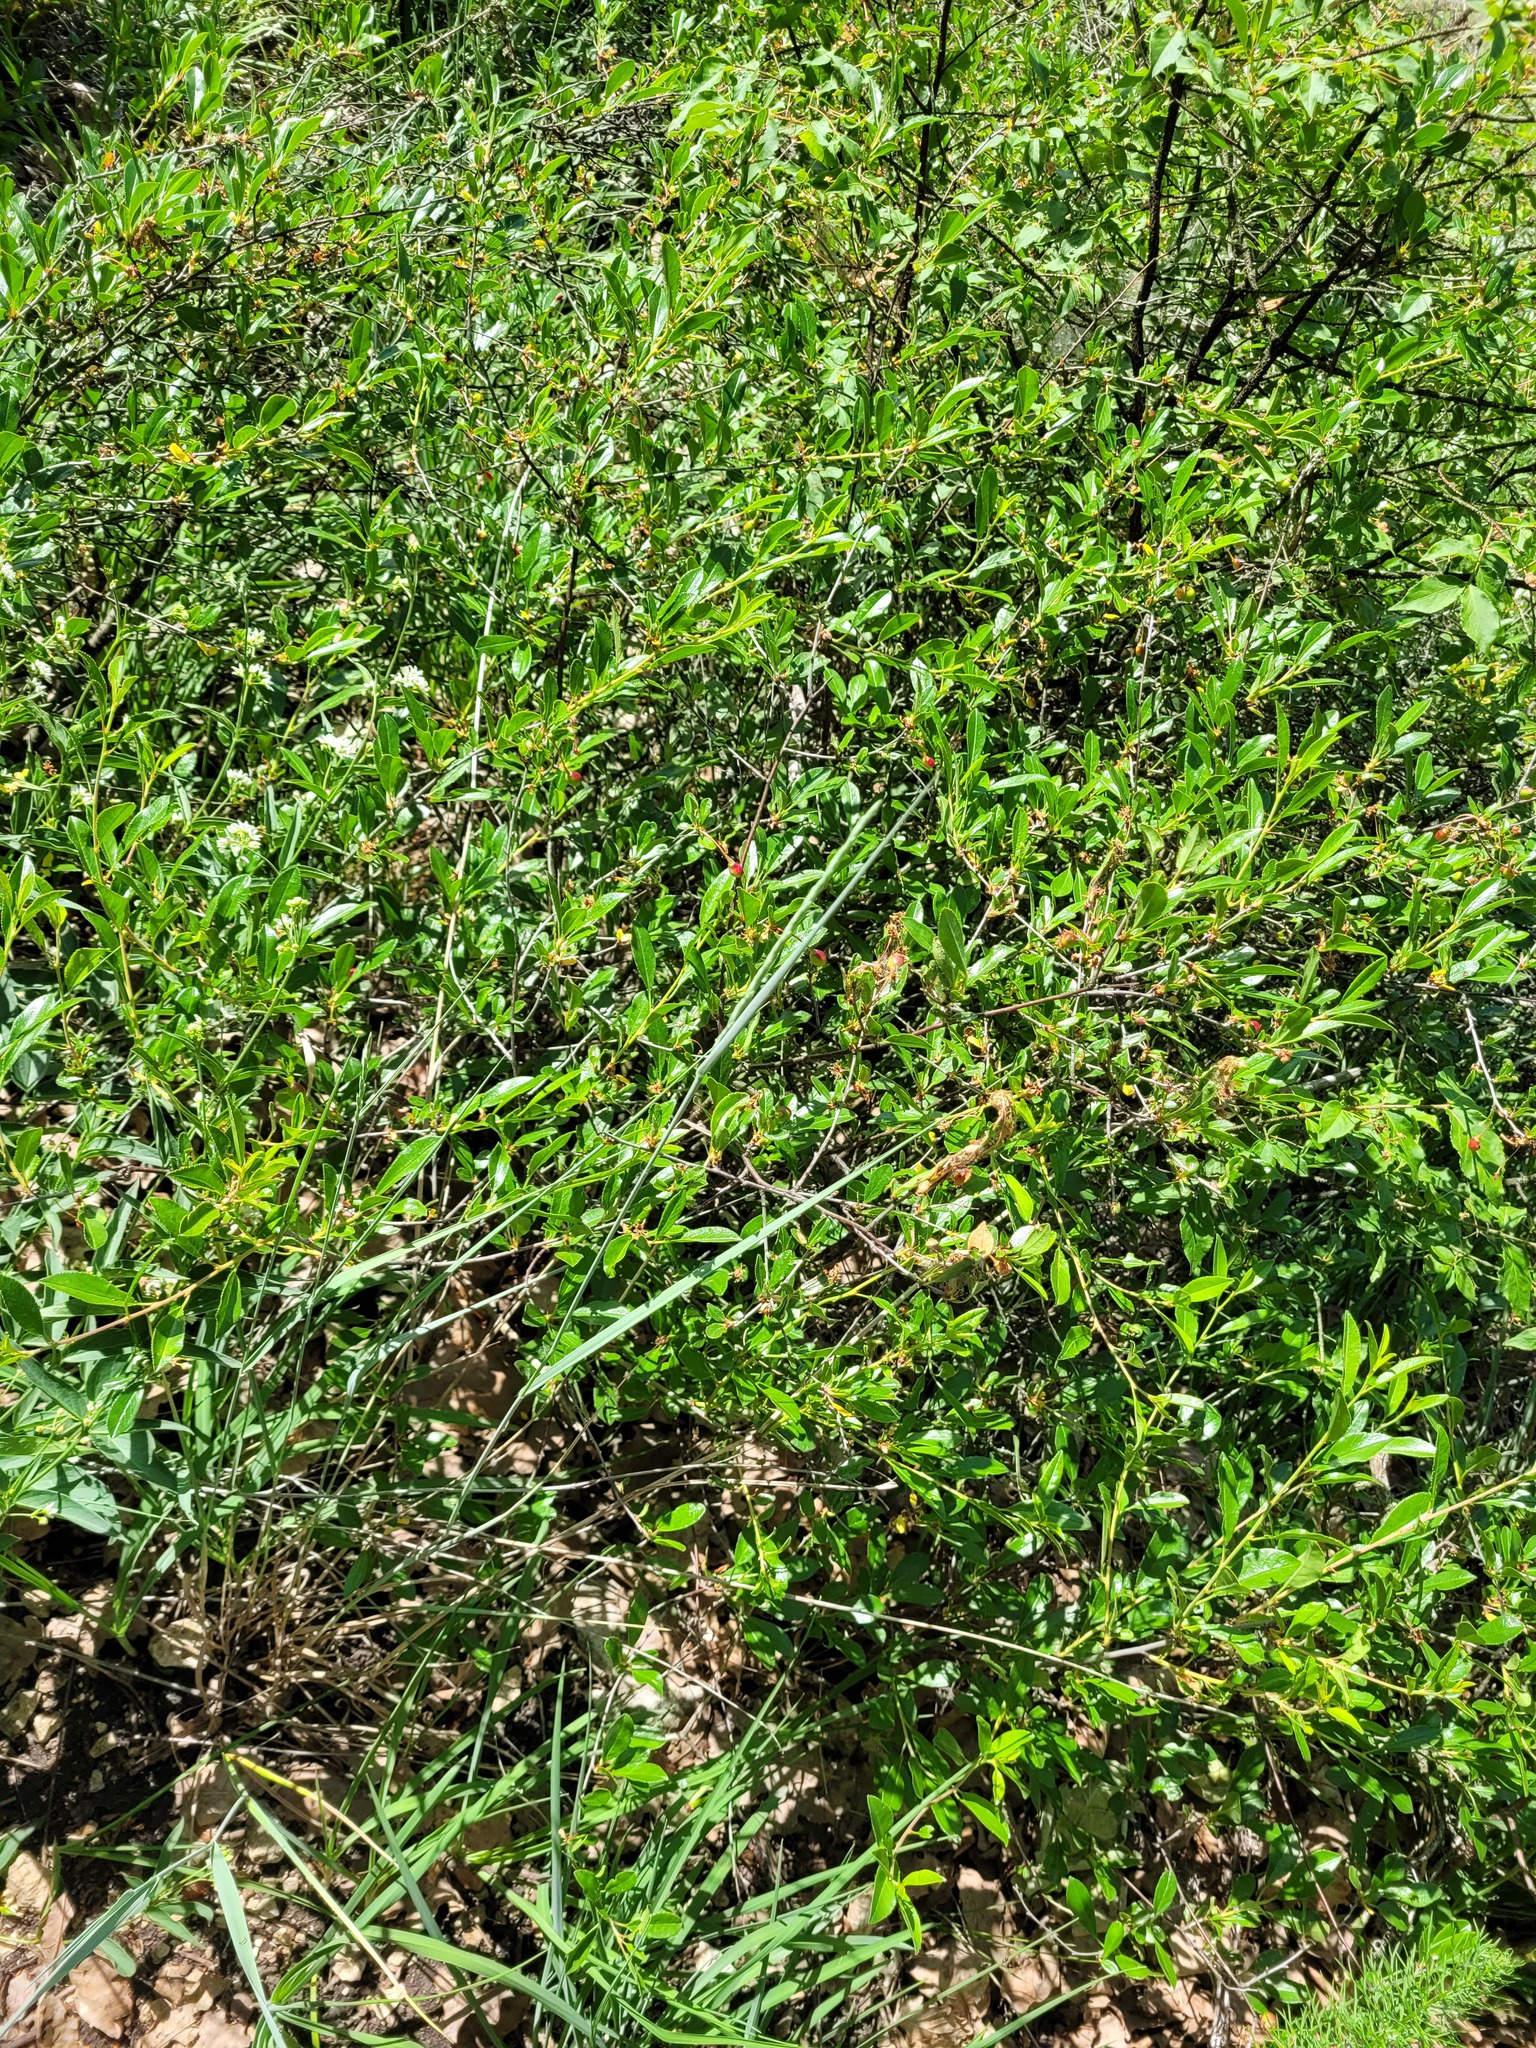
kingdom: Plantae
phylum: Tracheophyta
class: Magnoliopsida
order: Rosales
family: Rosaceae
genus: Prunus
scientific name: Prunus fruticosa
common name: European dwarf cherry
